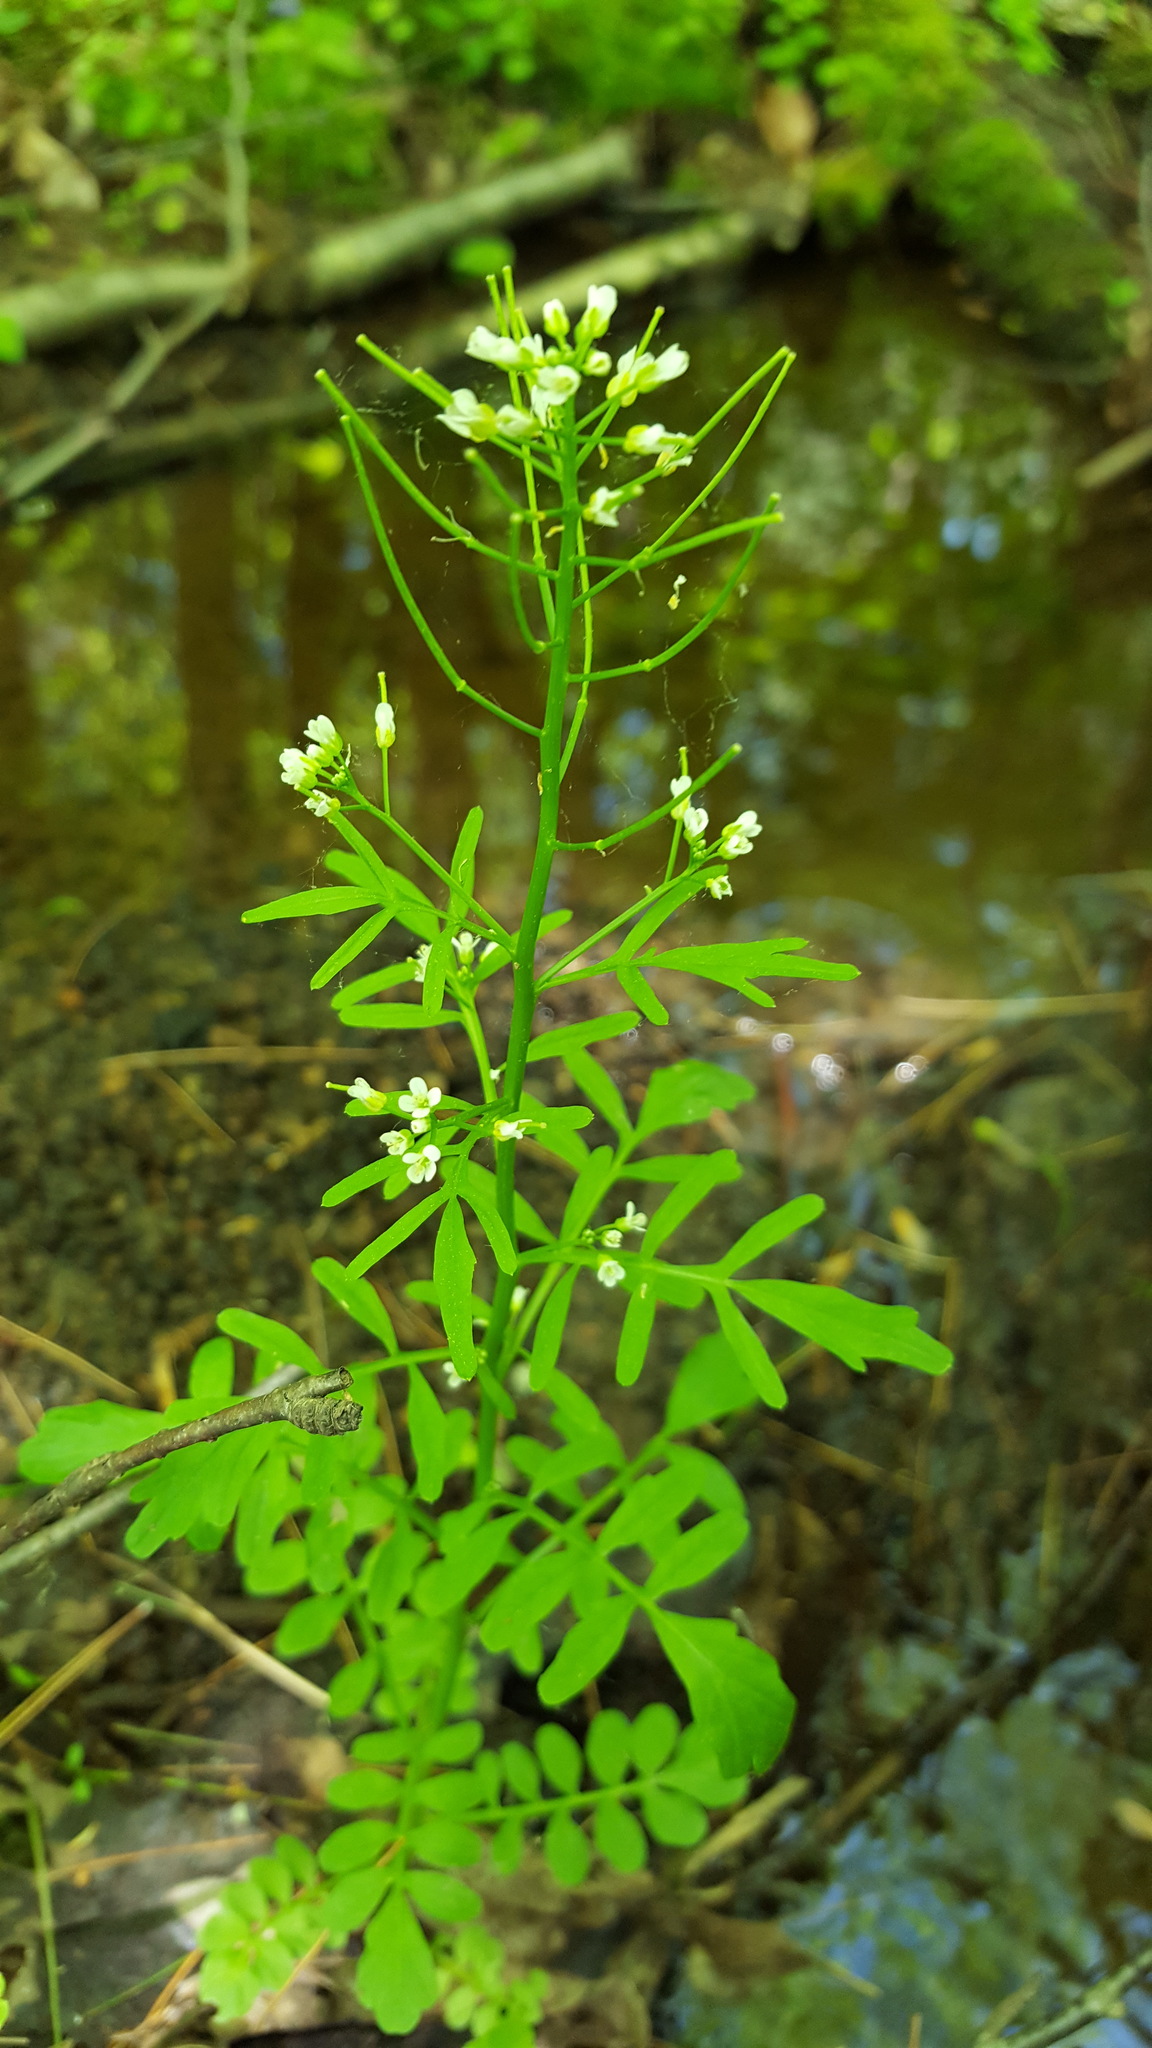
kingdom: Plantae
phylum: Tracheophyta
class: Magnoliopsida
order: Brassicales
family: Brassicaceae
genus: Cardamine
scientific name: Cardamine pensylvanica
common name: Pennsylvania bittercress
